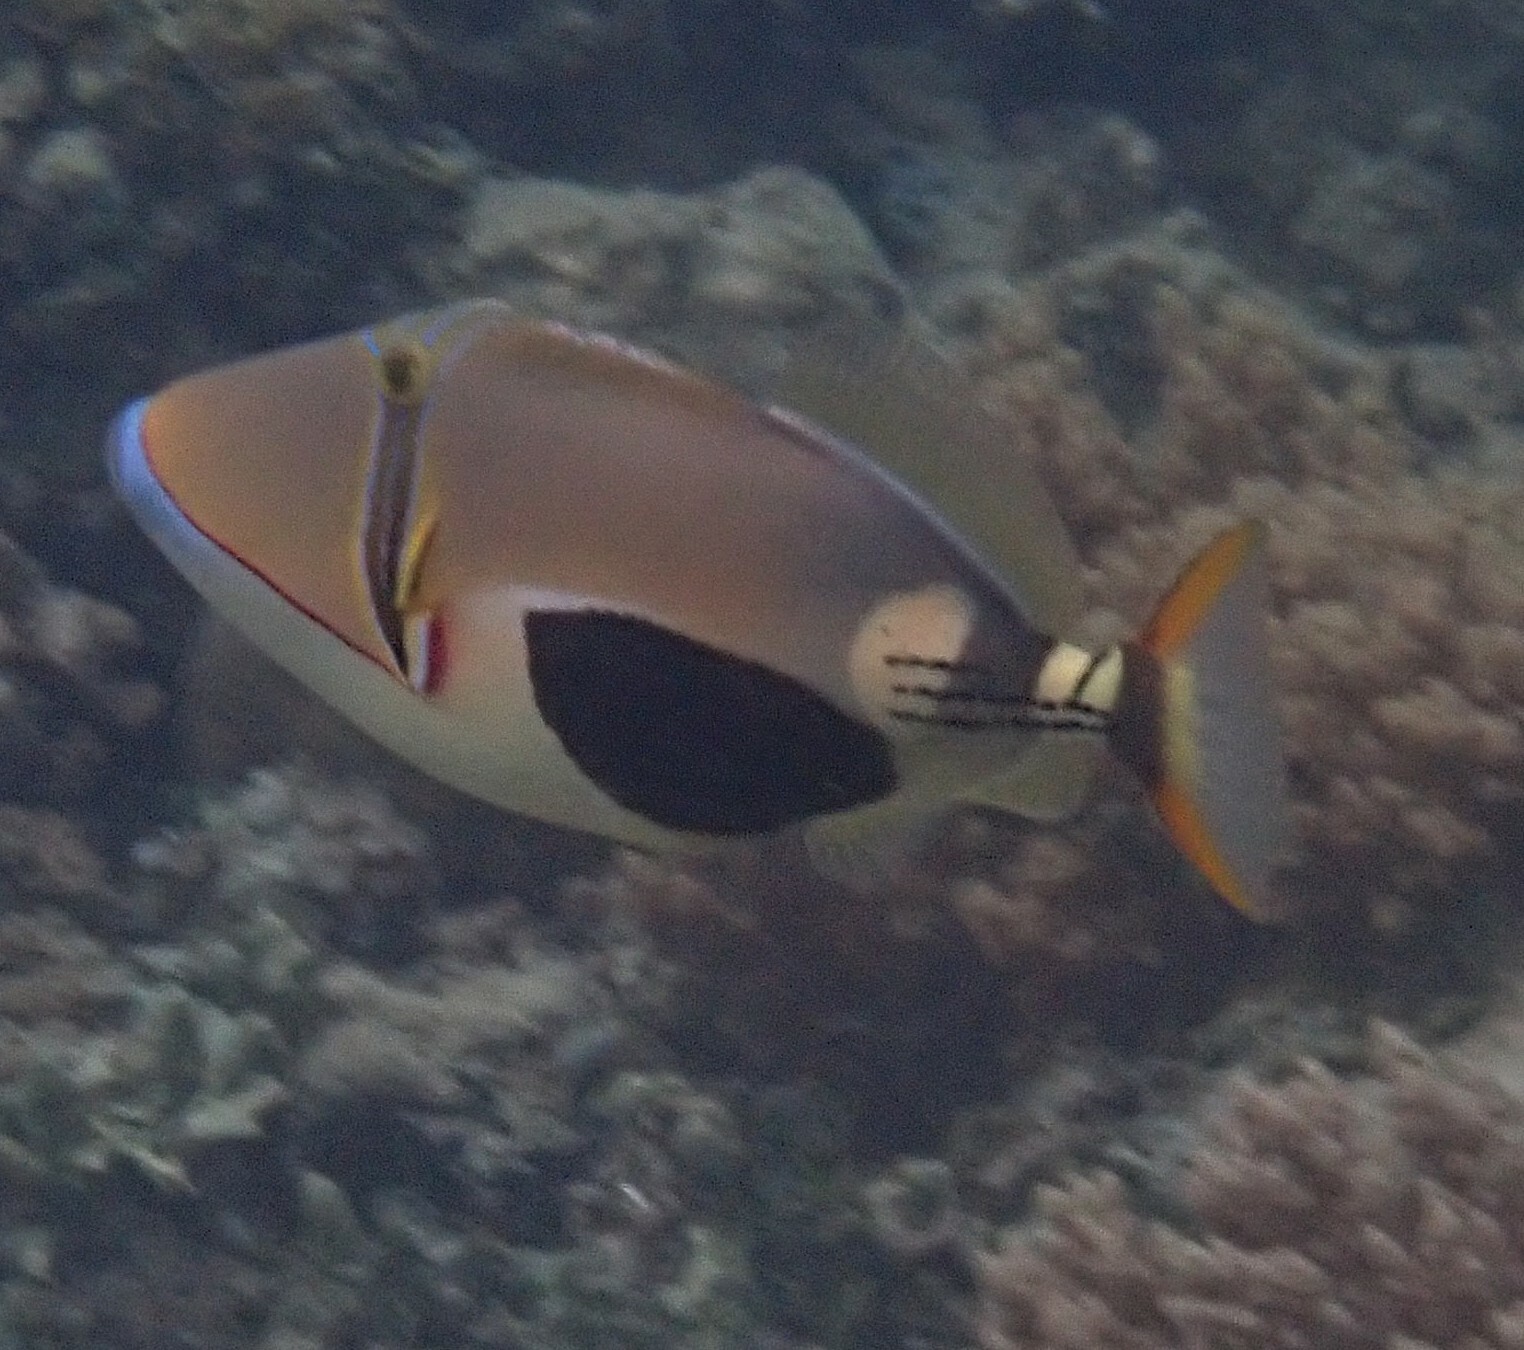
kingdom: Animalia
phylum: Chordata
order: Tetraodontiformes
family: Balistidae
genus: Rhinecanthus
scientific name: Rhinecanthus verrucosus
